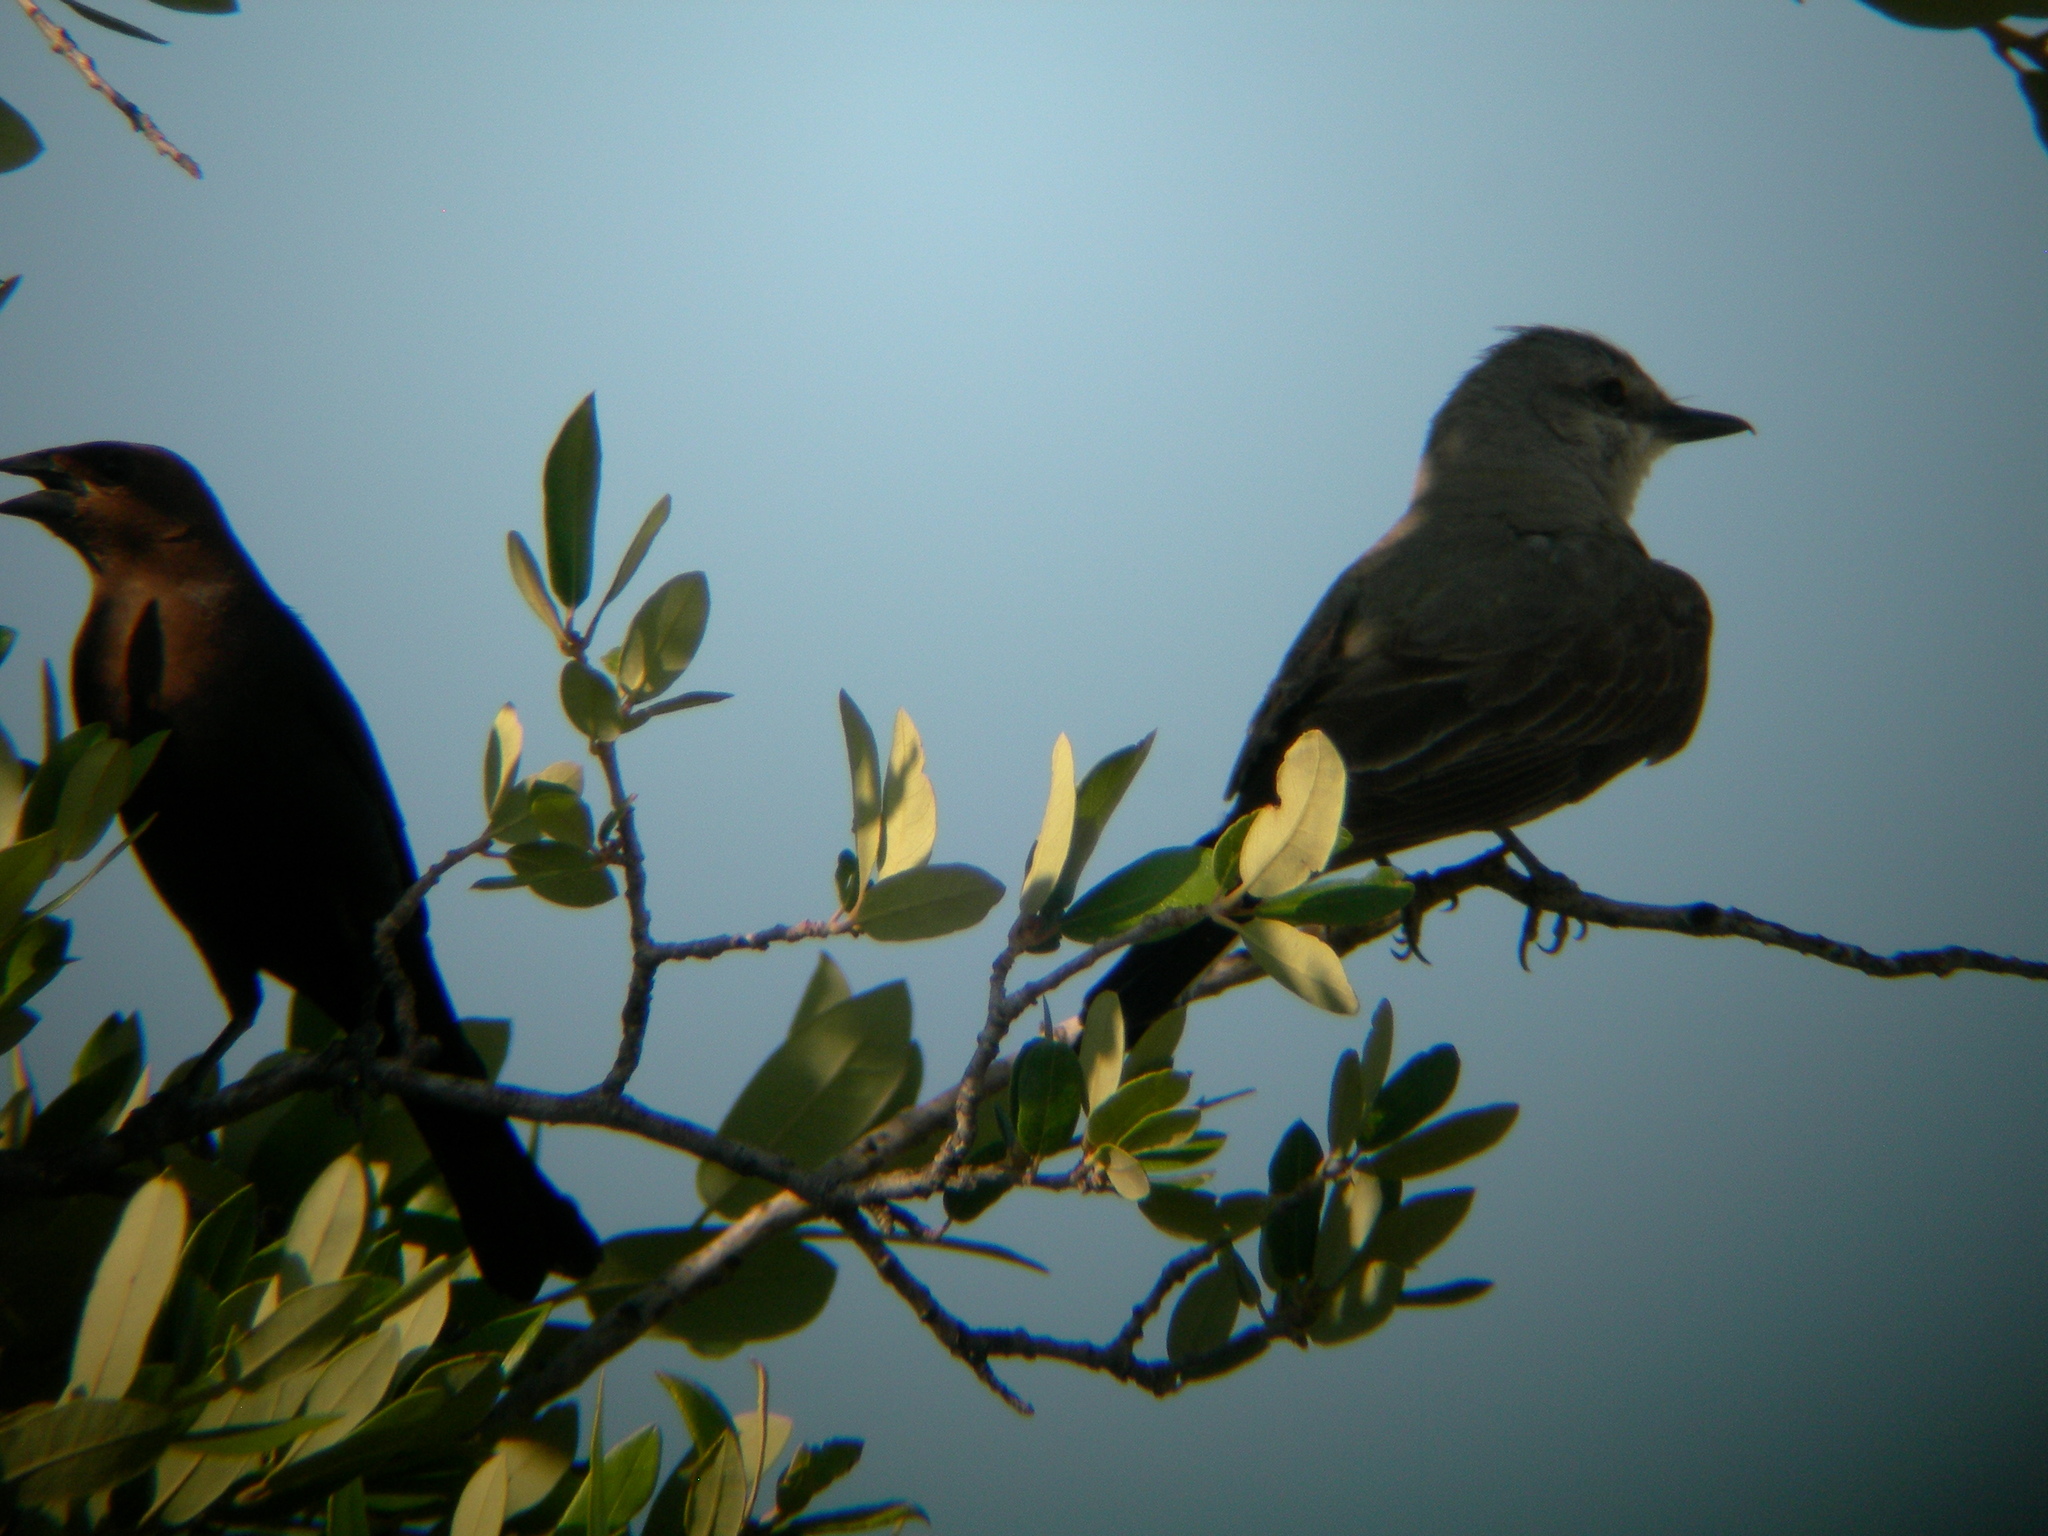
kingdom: Animalia
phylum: Chordata
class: Aves
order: Passeriformes
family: Tyrannidae
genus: Tyrannus
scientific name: Tyrannus verticalis
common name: Western kingbird
